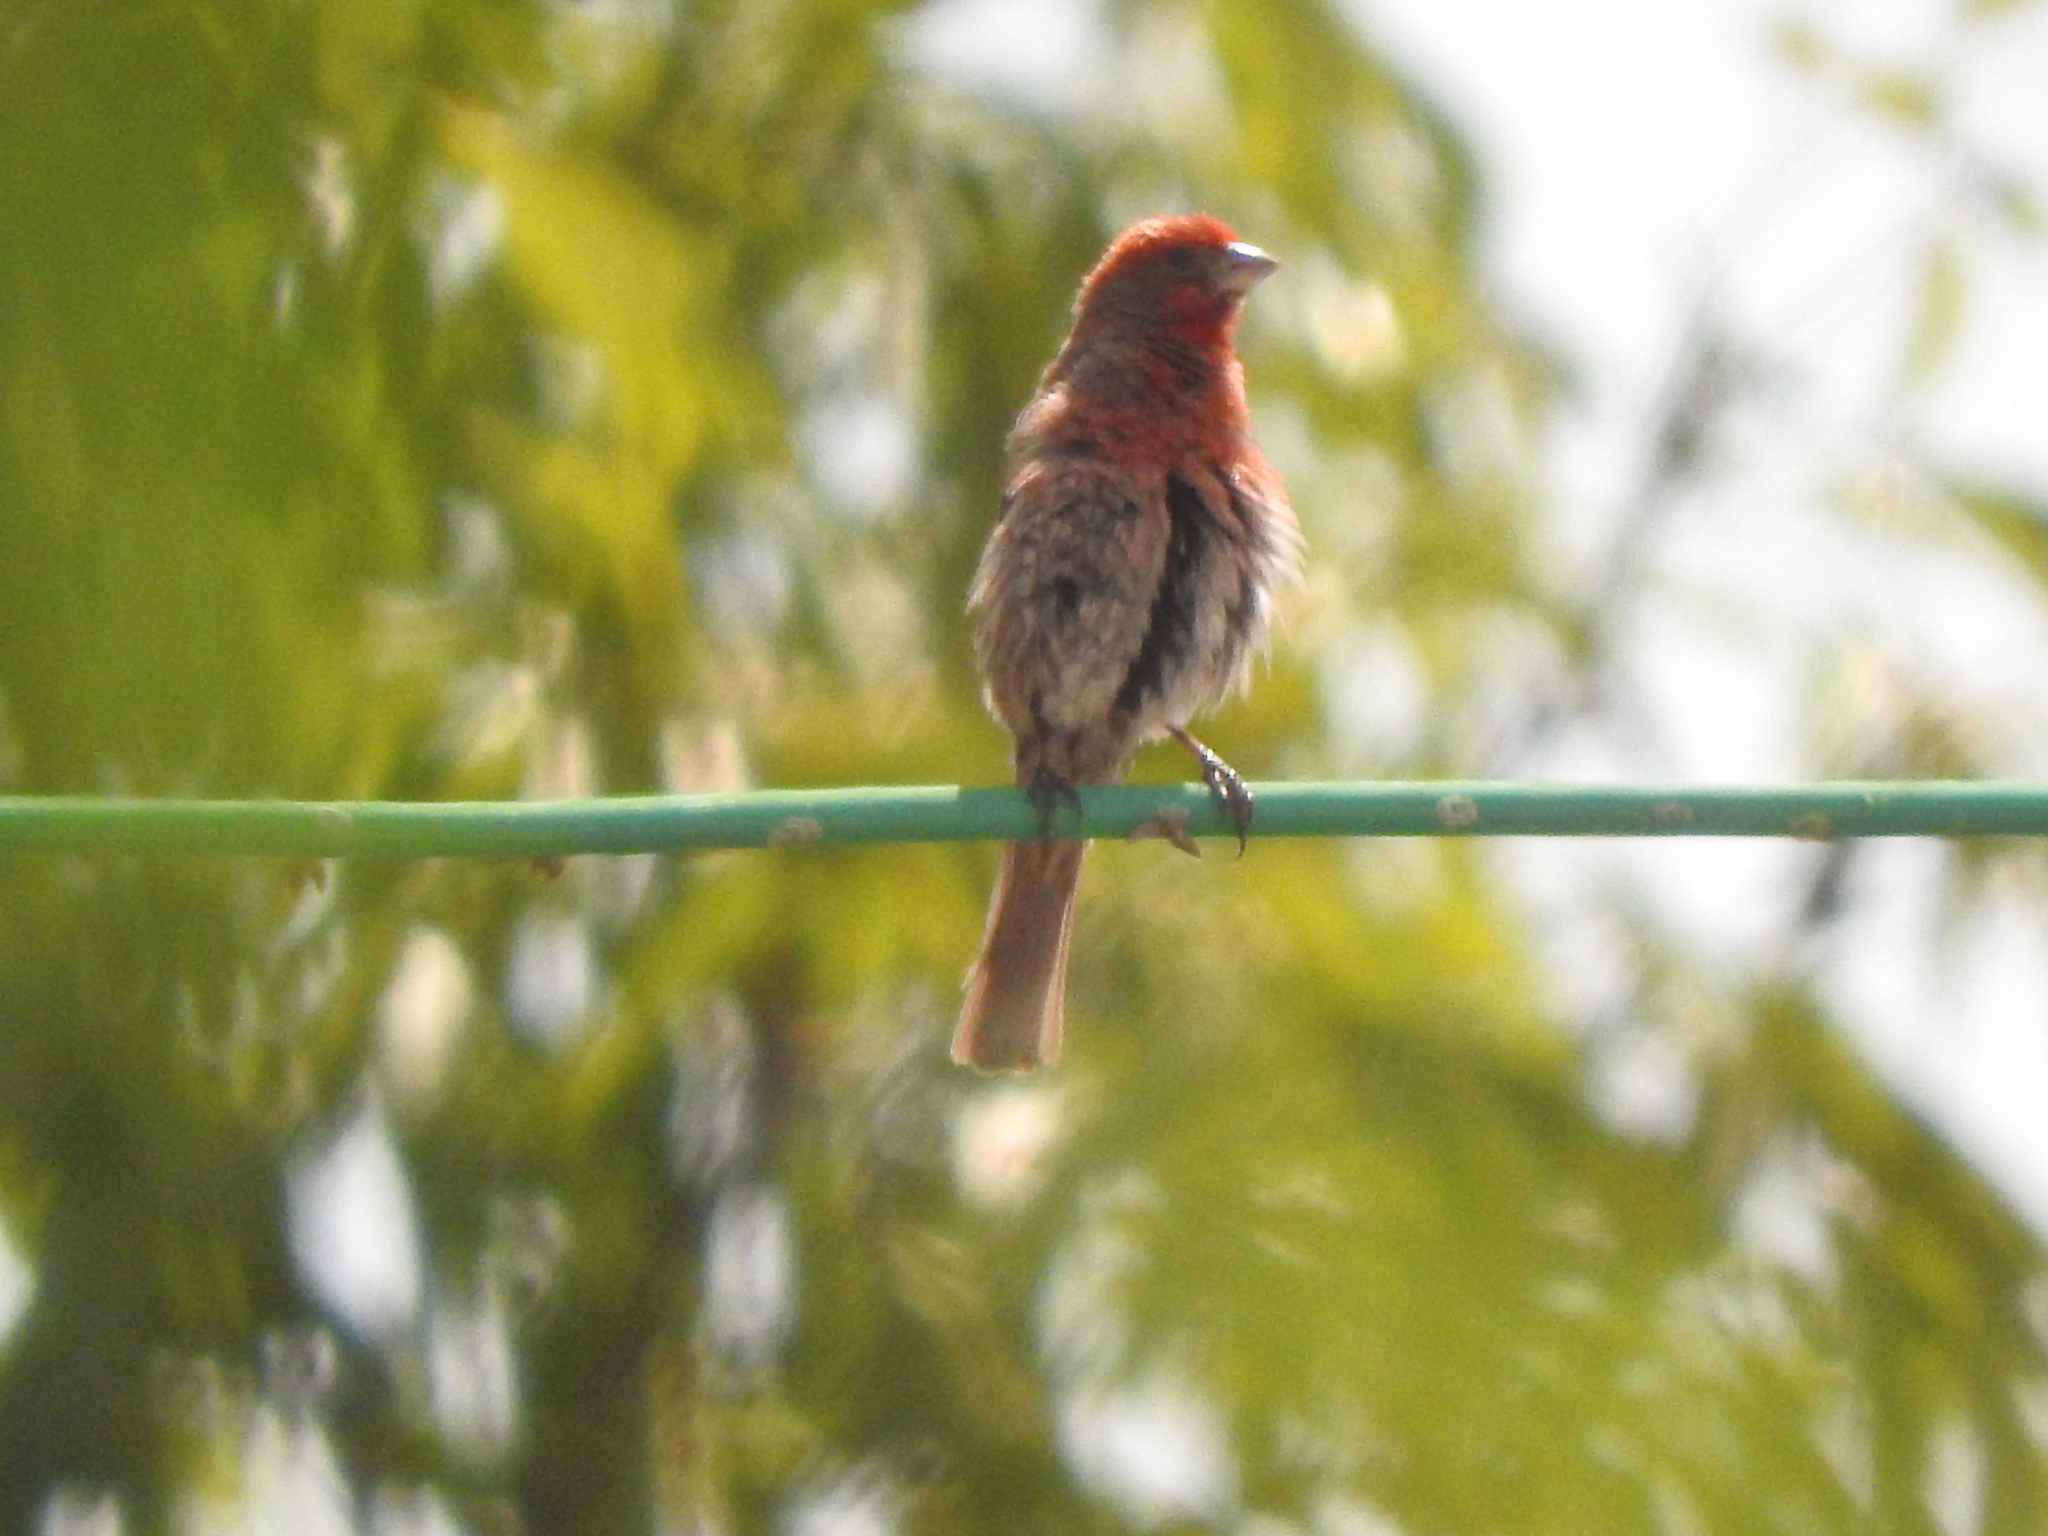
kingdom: Animalia
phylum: Chordata
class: Aves
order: Passeriformes
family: Fringillidae
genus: Haemorhous
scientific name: Haemorhous mexicanus
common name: House finch
